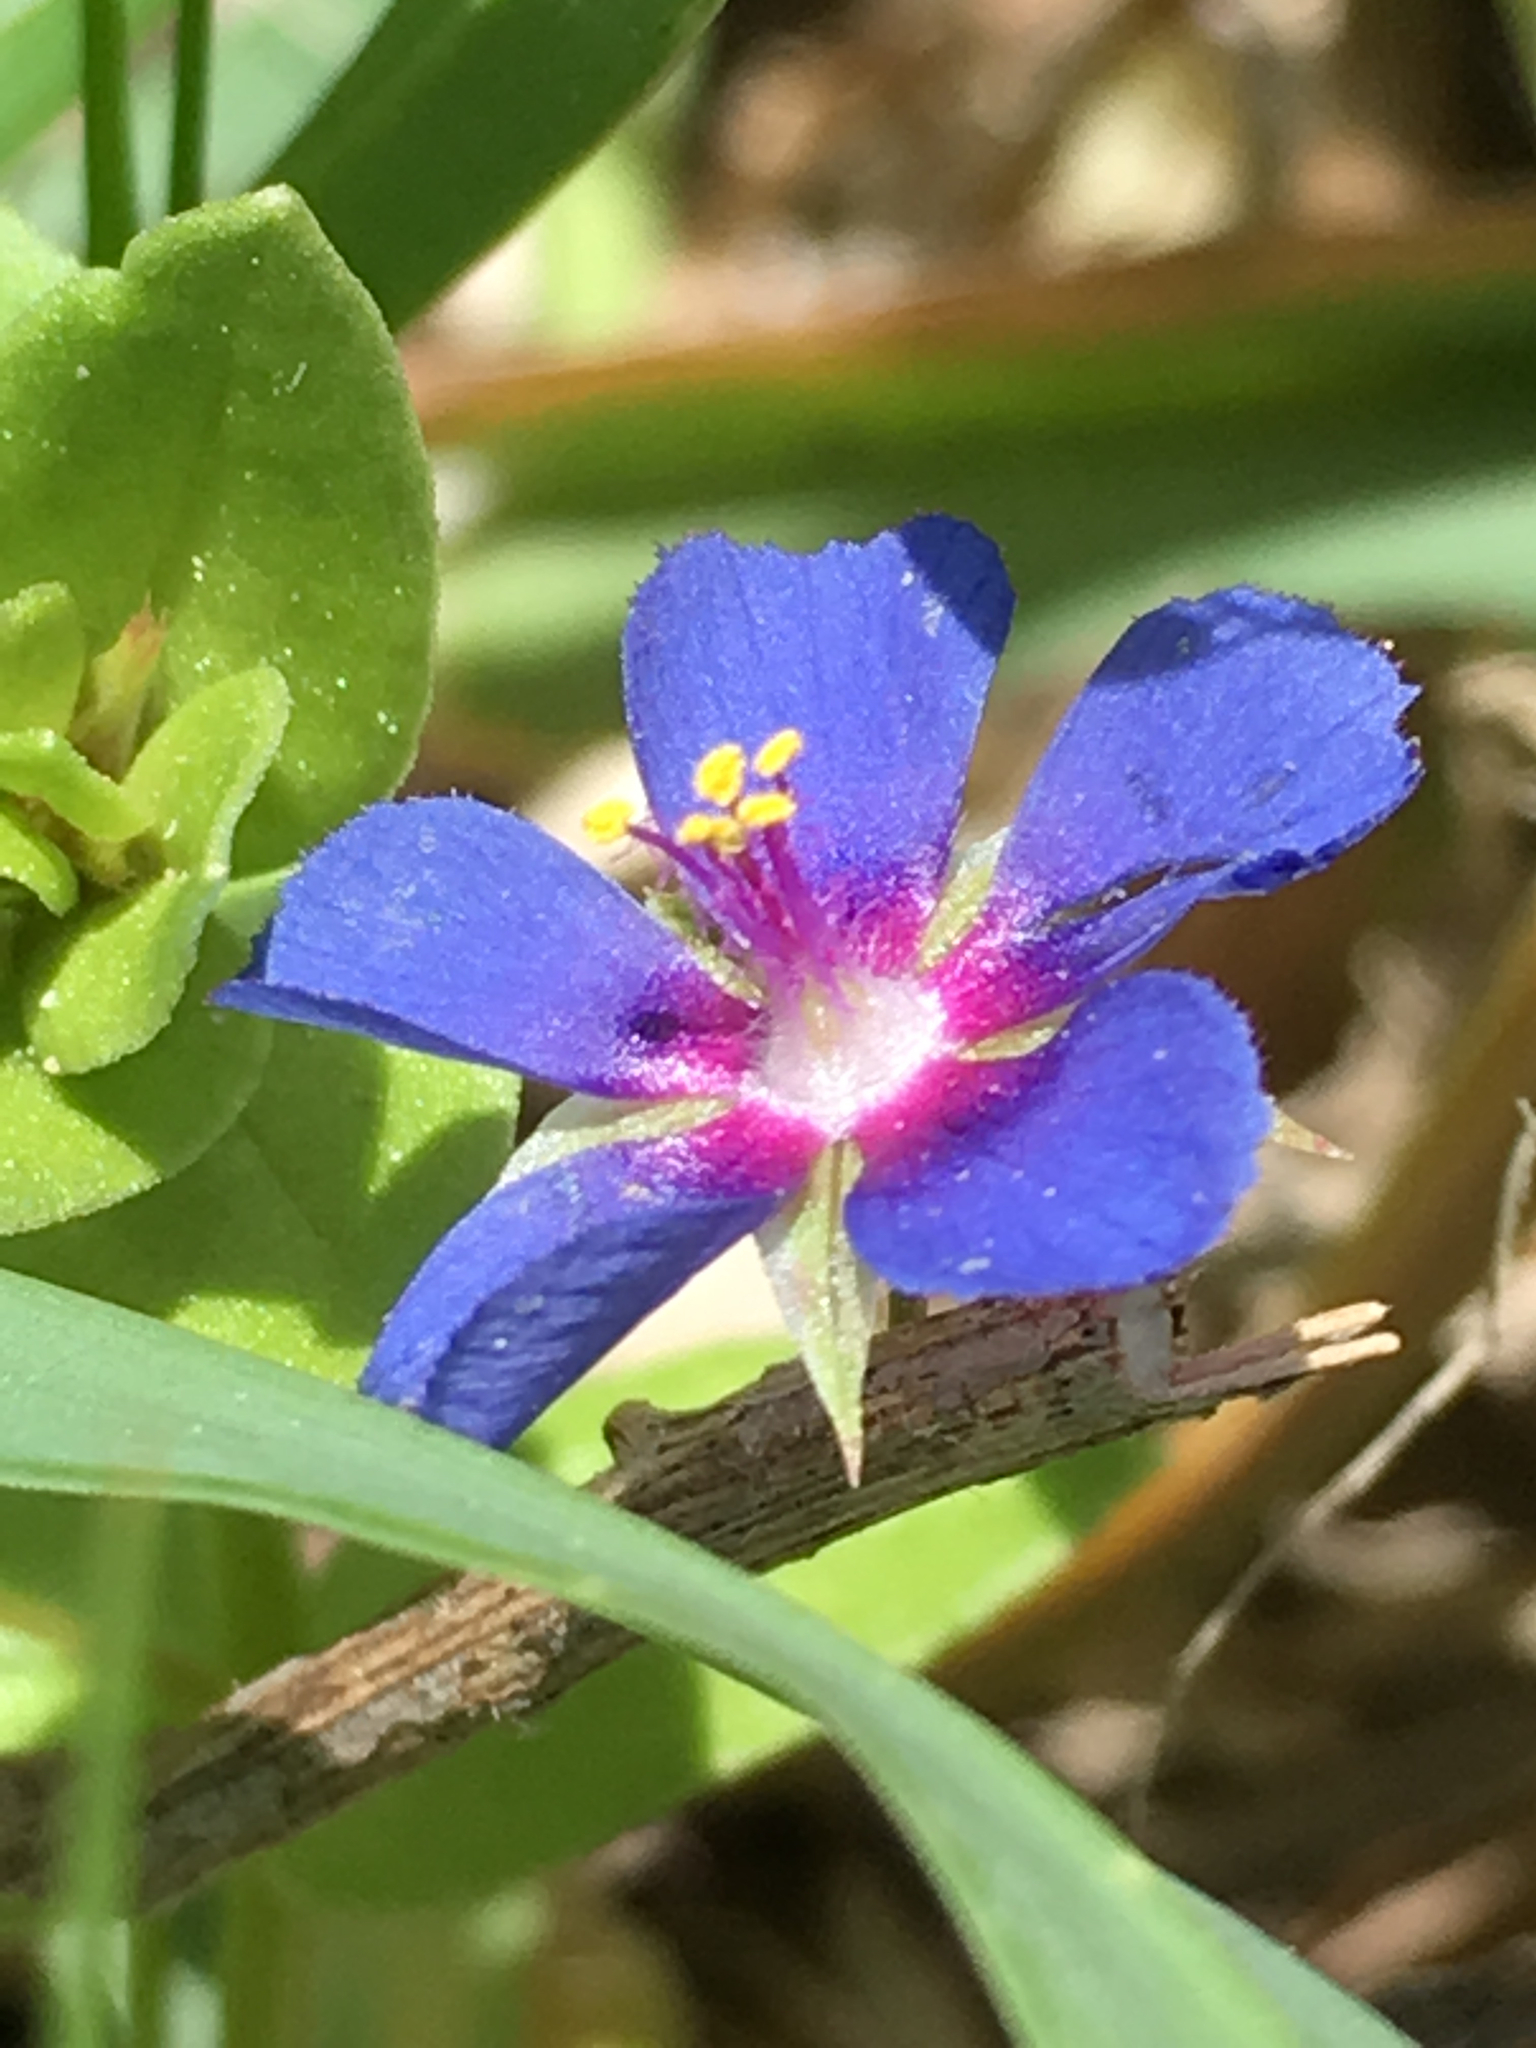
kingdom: Plantae
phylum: Tracheophyta
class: Magnoliopsida
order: Ericales
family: Primulaceae
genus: Lysimachia
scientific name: Lysimachia arvensis
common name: Scarlet pimpernel
